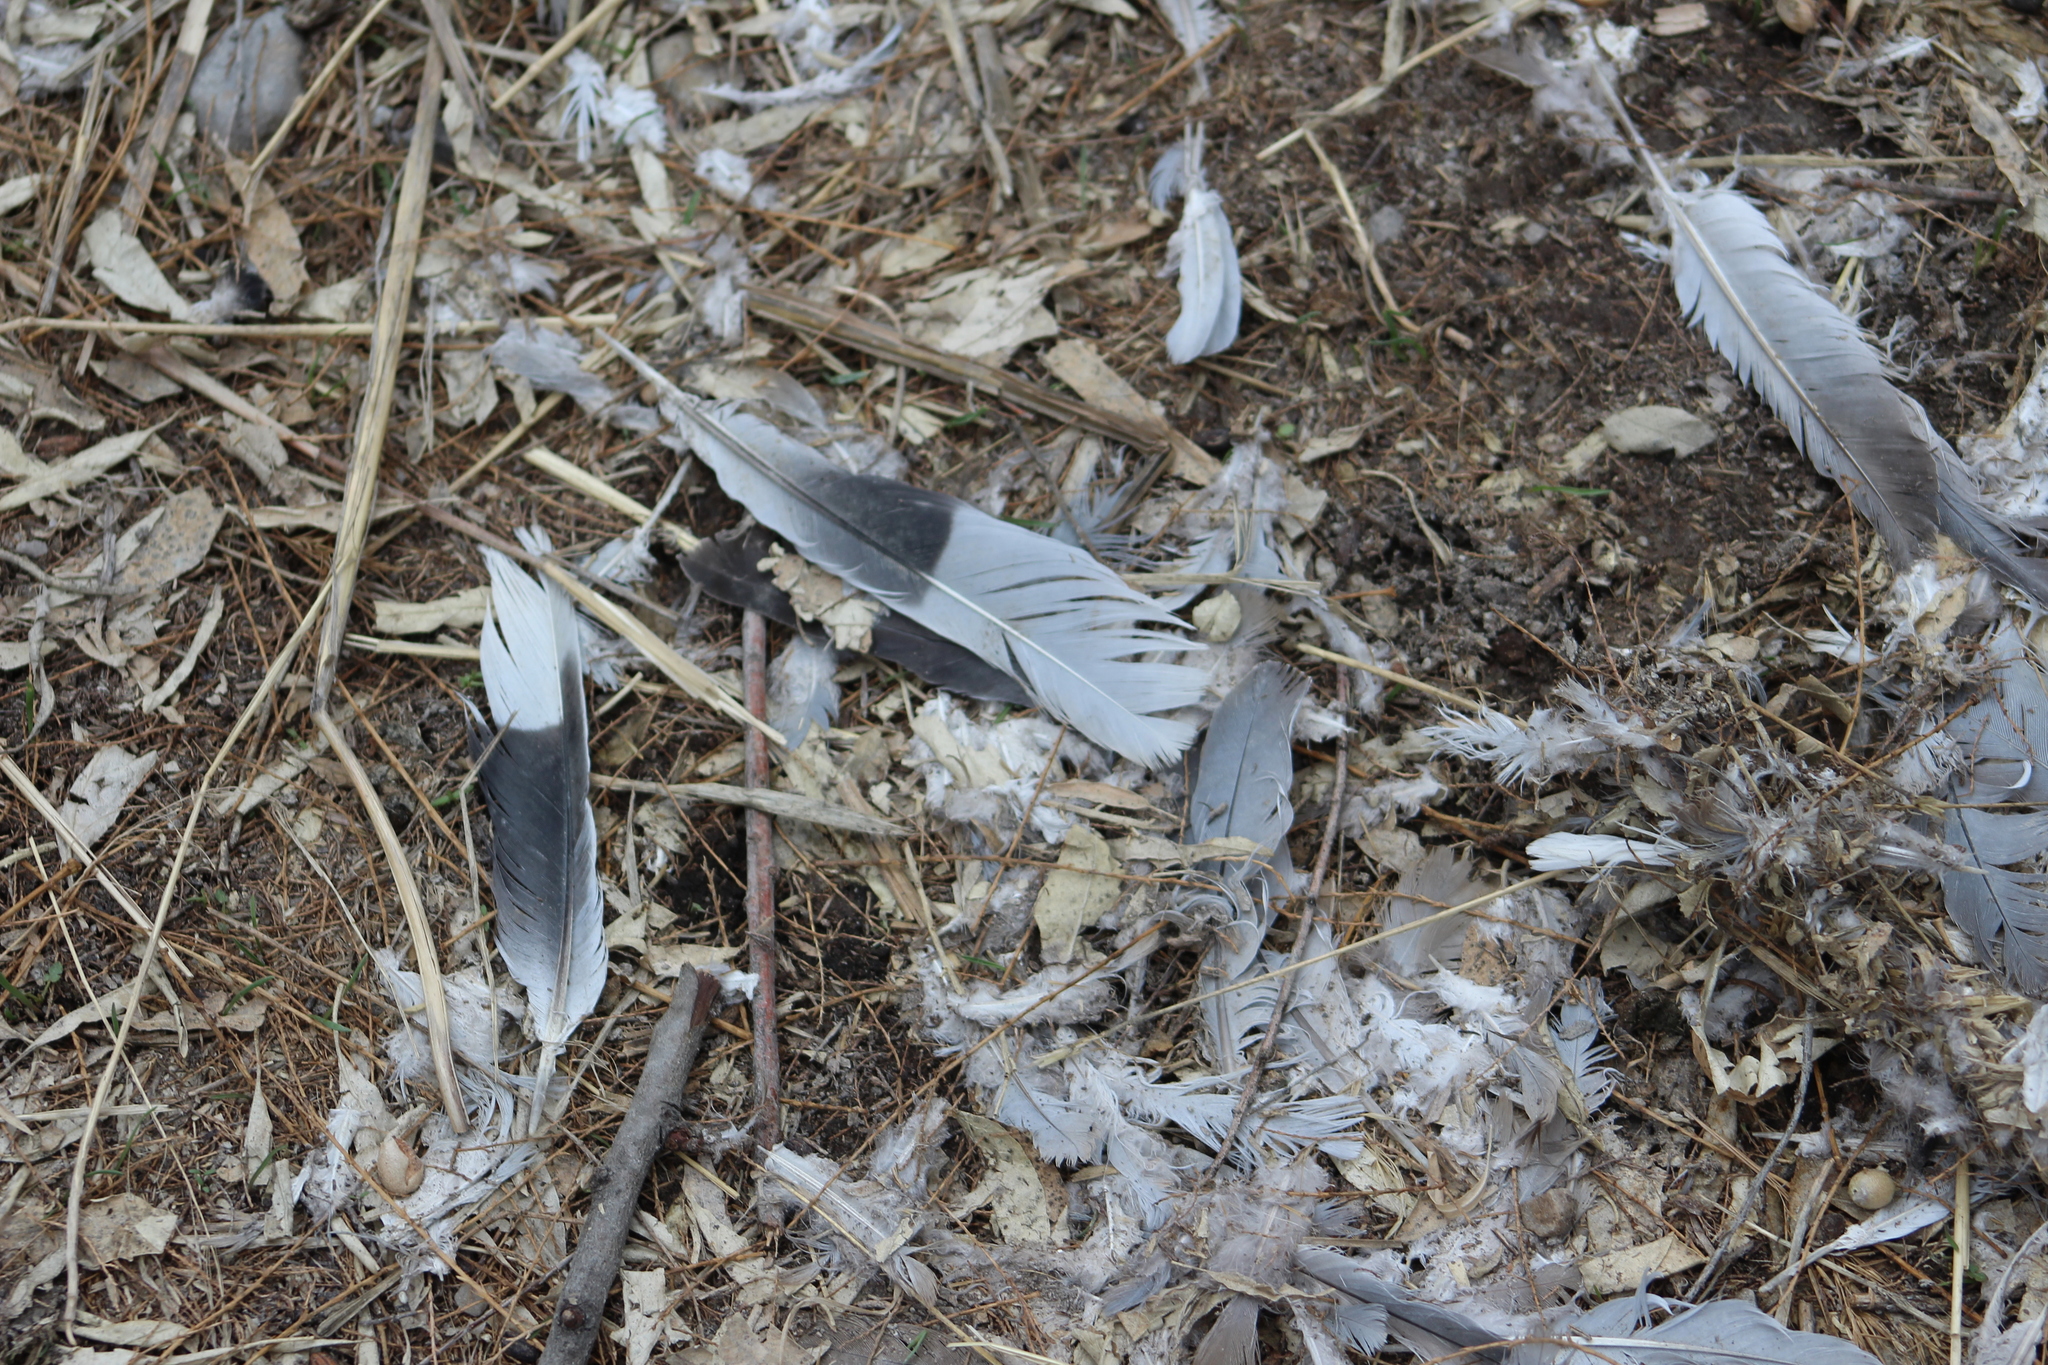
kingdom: Animalia
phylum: Chordata
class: Aves
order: Columbiformes
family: Columbidae
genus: Columba
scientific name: Columba livia
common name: Rock pigeon
